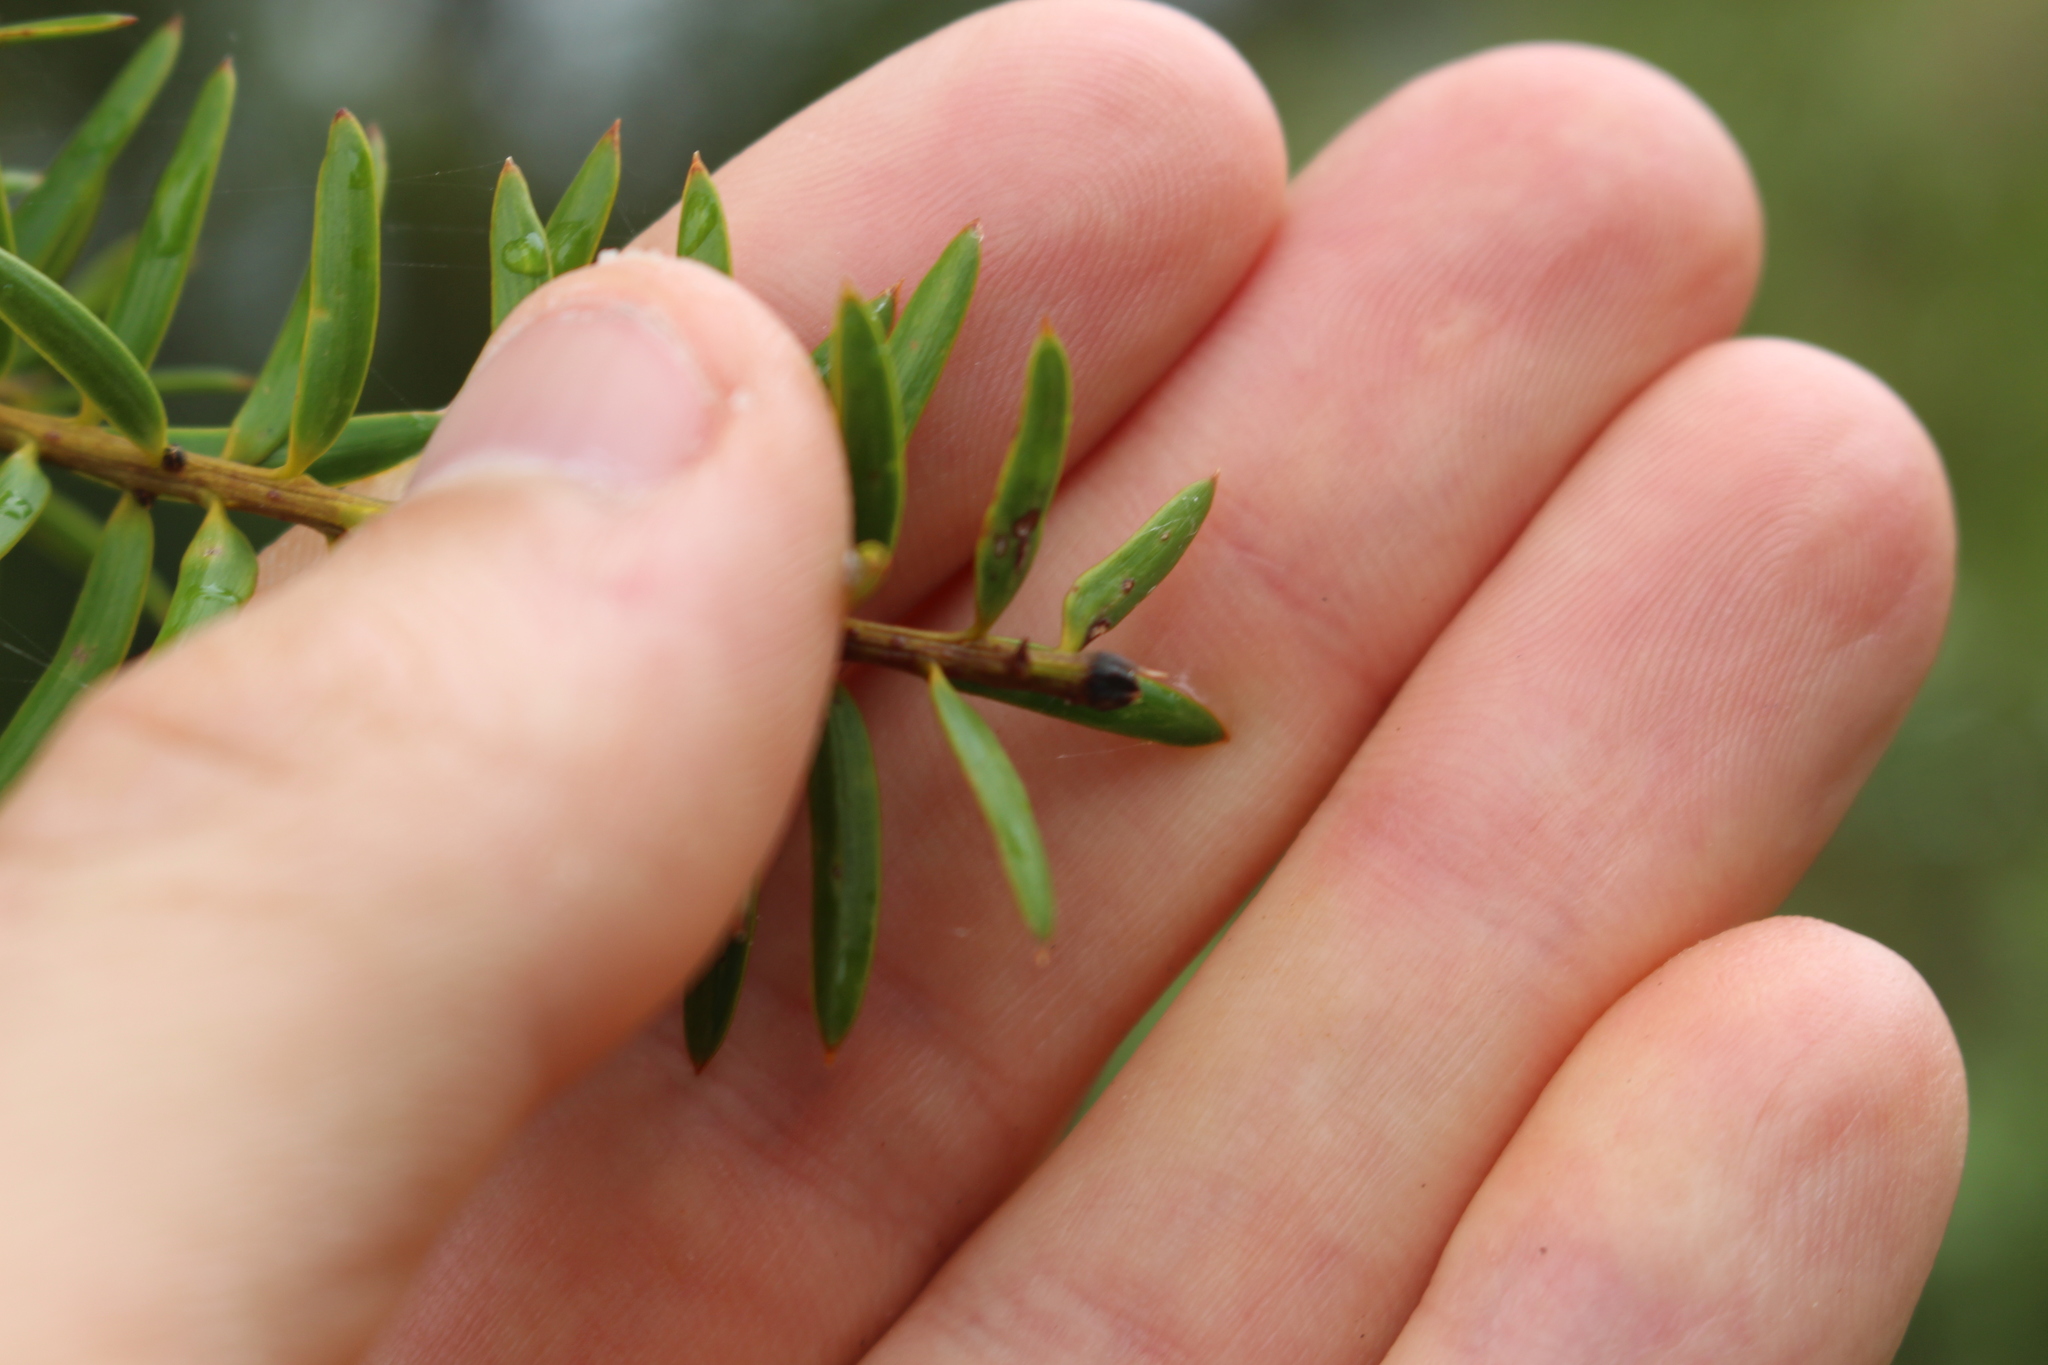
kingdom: Plantae
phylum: Tracheophyta
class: Pinopsida
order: Pinales
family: Podocarpaceae
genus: Podocarpus
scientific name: Podocarpus totara
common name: Totara
